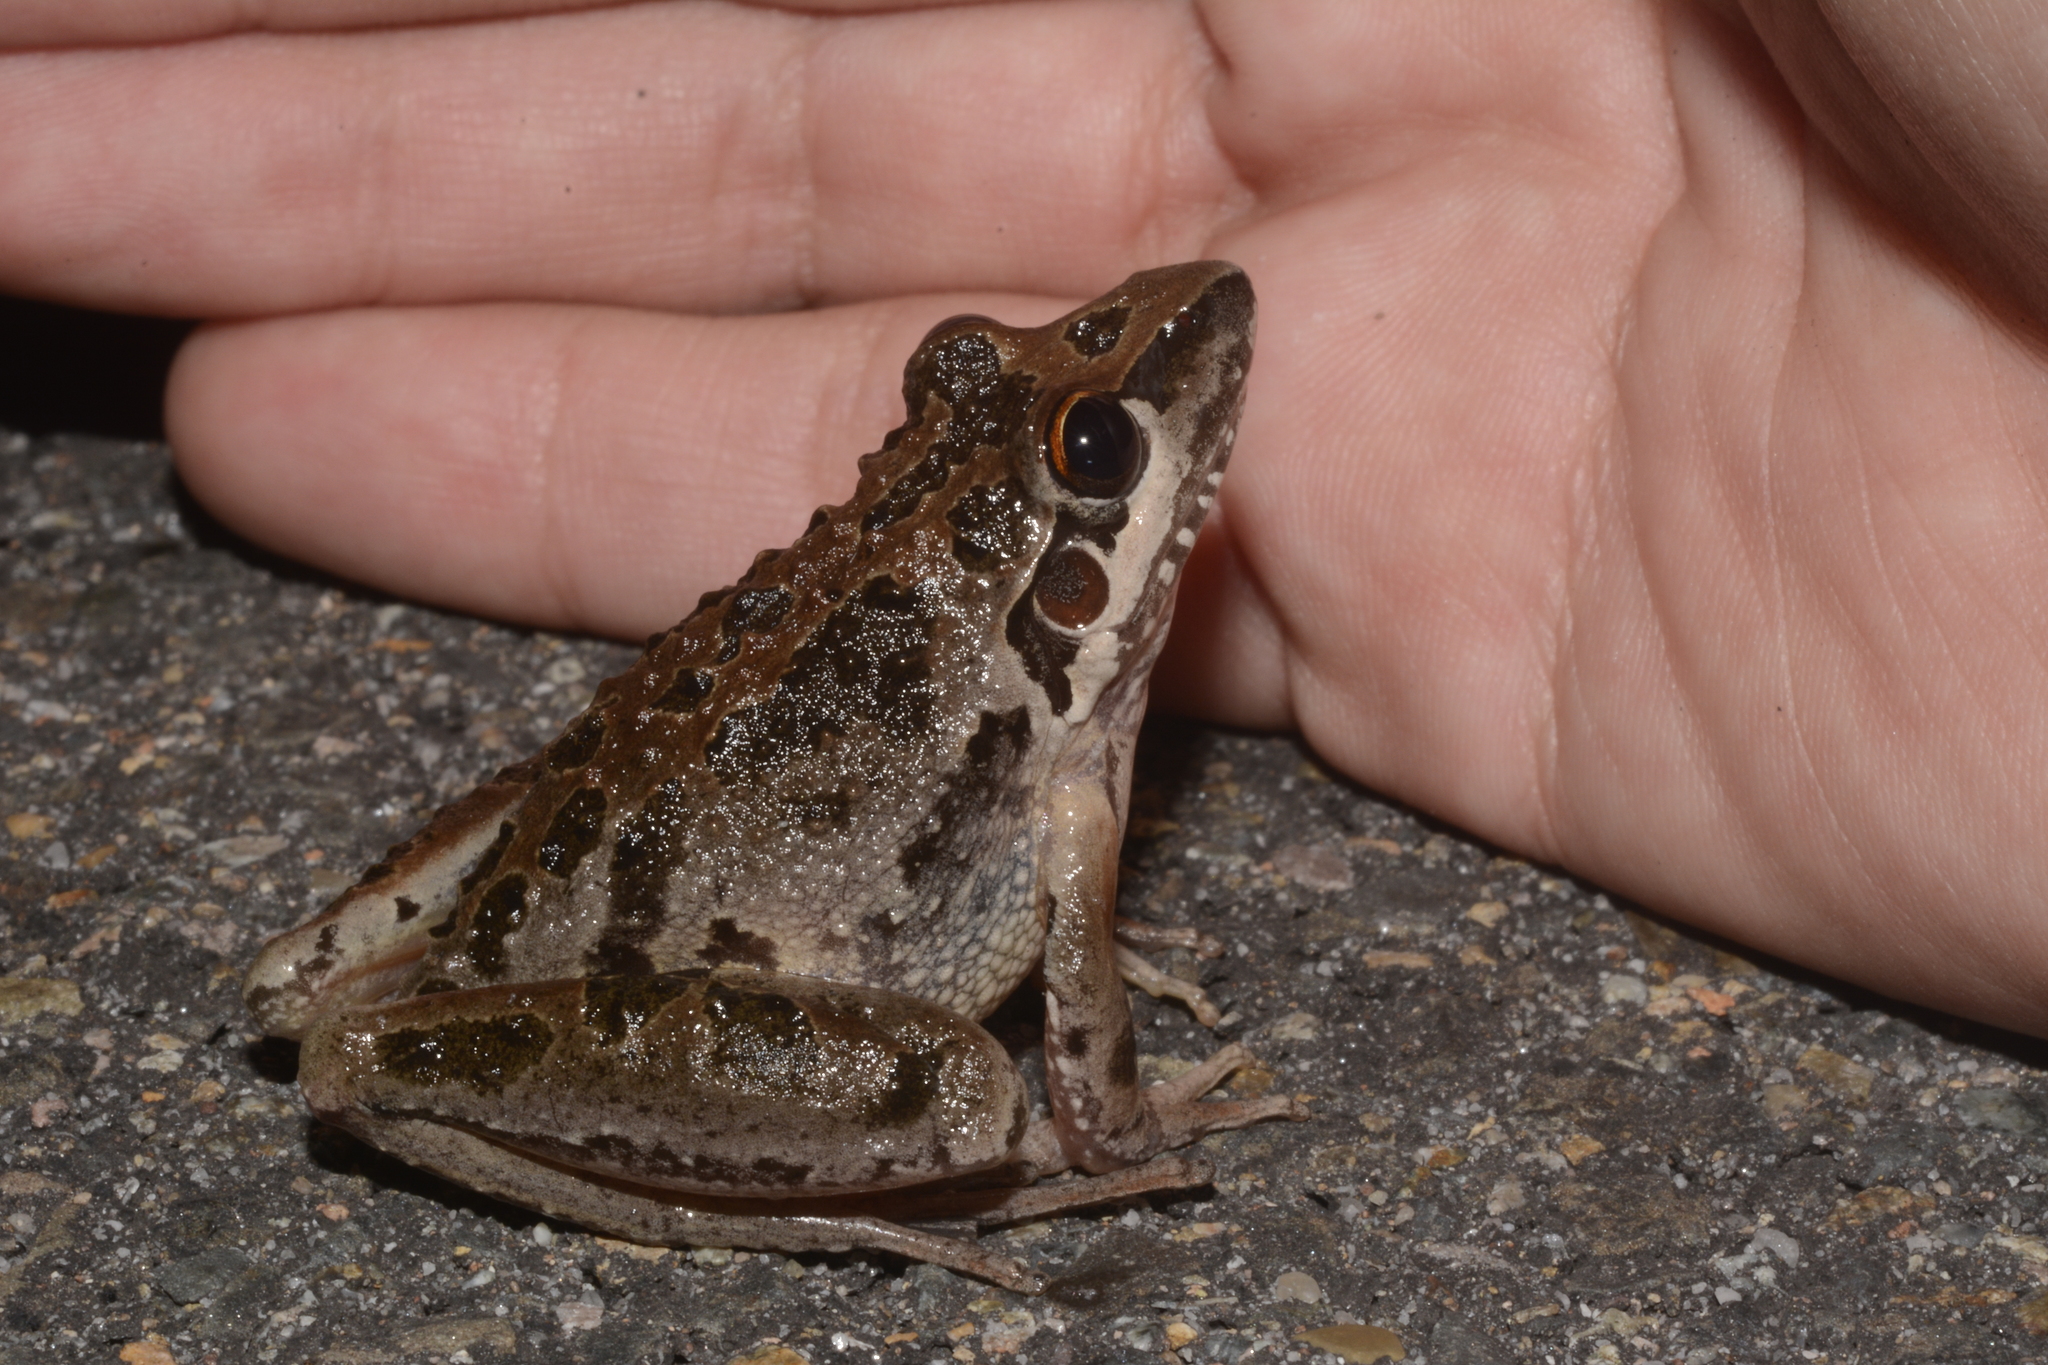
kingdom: Animalia
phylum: Chordata
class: Amphibia
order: Anura
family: Pelodryadidae
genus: Litoria
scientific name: Litoria freycineti
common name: Freycinet’s frog
